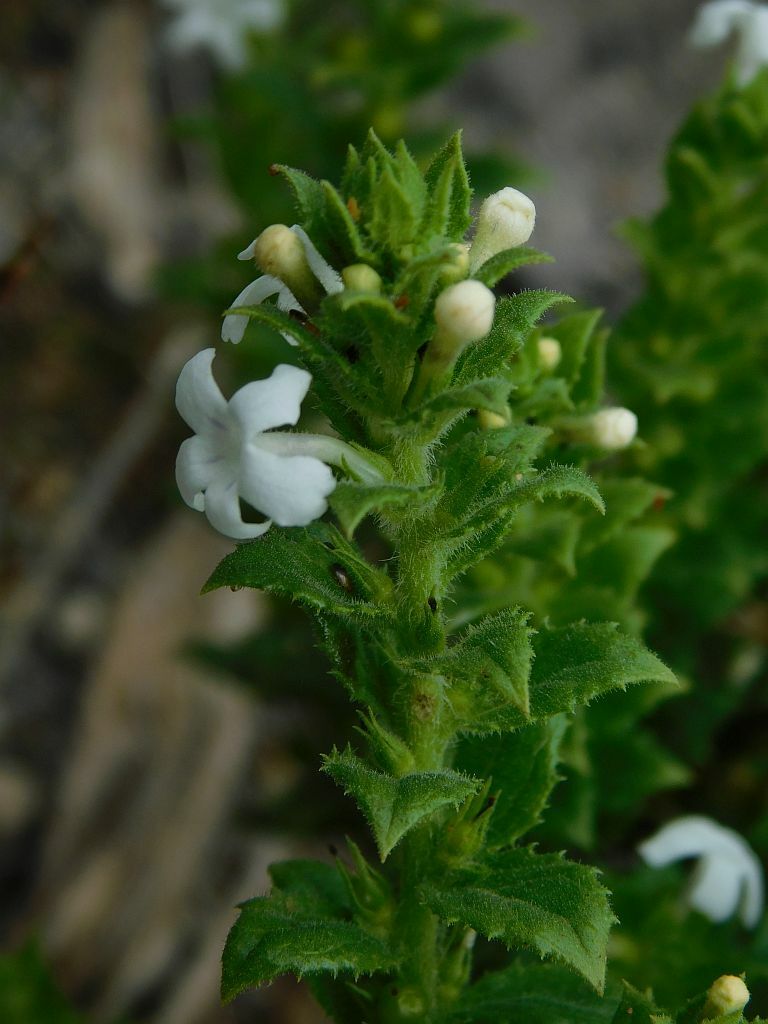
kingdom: Plantae
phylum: Tracheophyta
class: Magnoliopsida
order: Lamiales
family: Scrophulariaceae
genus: Oftia
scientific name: Oftia africana
